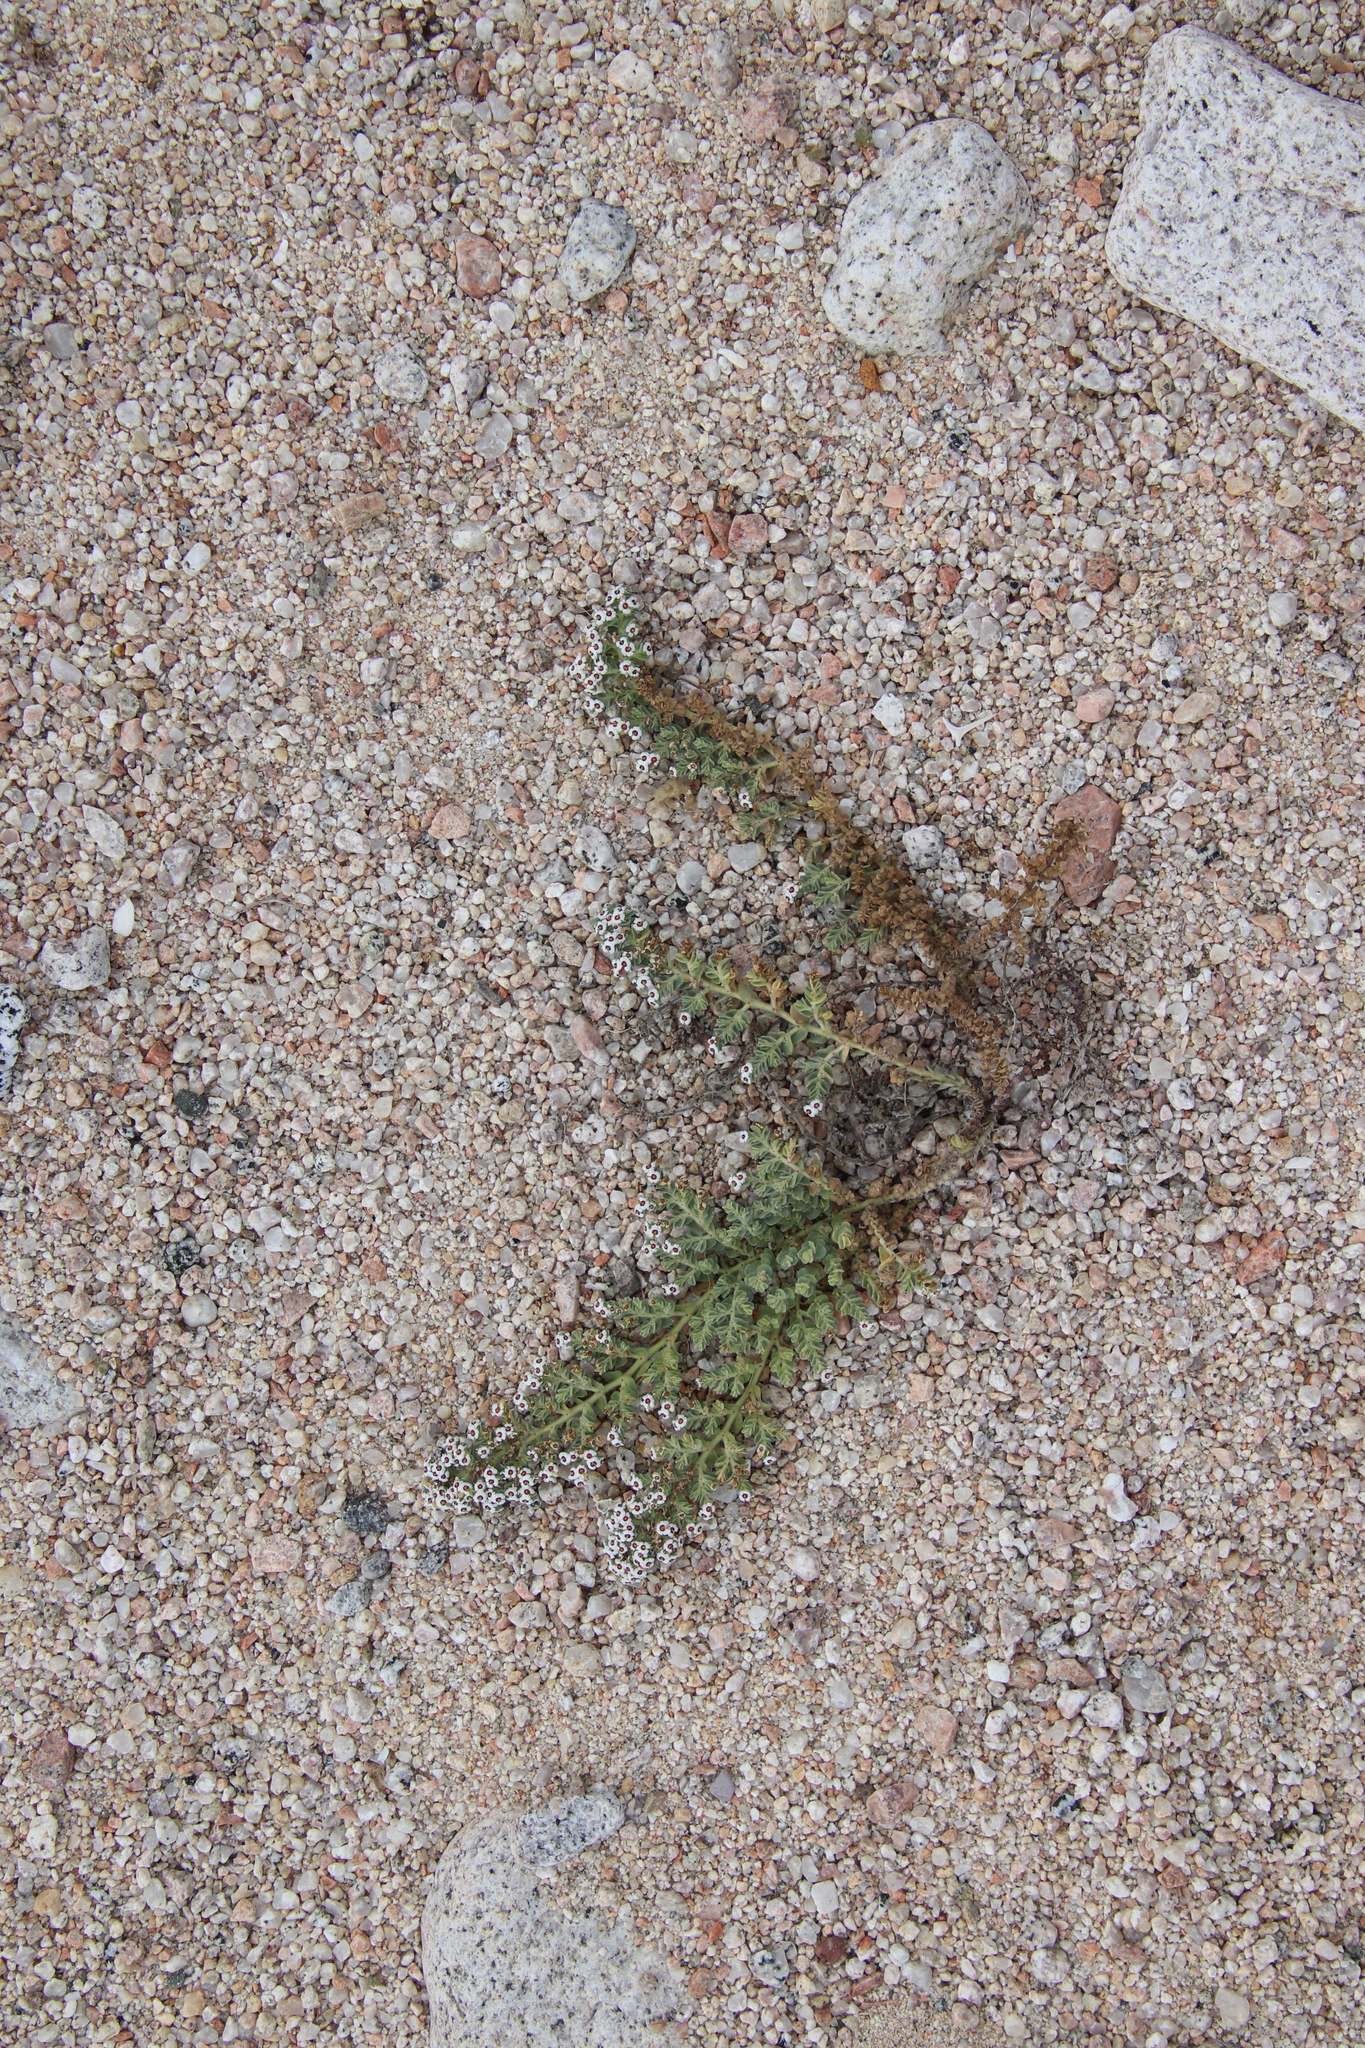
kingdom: Plantae
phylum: Tracheophyta
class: Magnoliopsida
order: Malpighiales
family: Euphorbiaceae
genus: Euphorbia
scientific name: Euphorbia leucophylla
